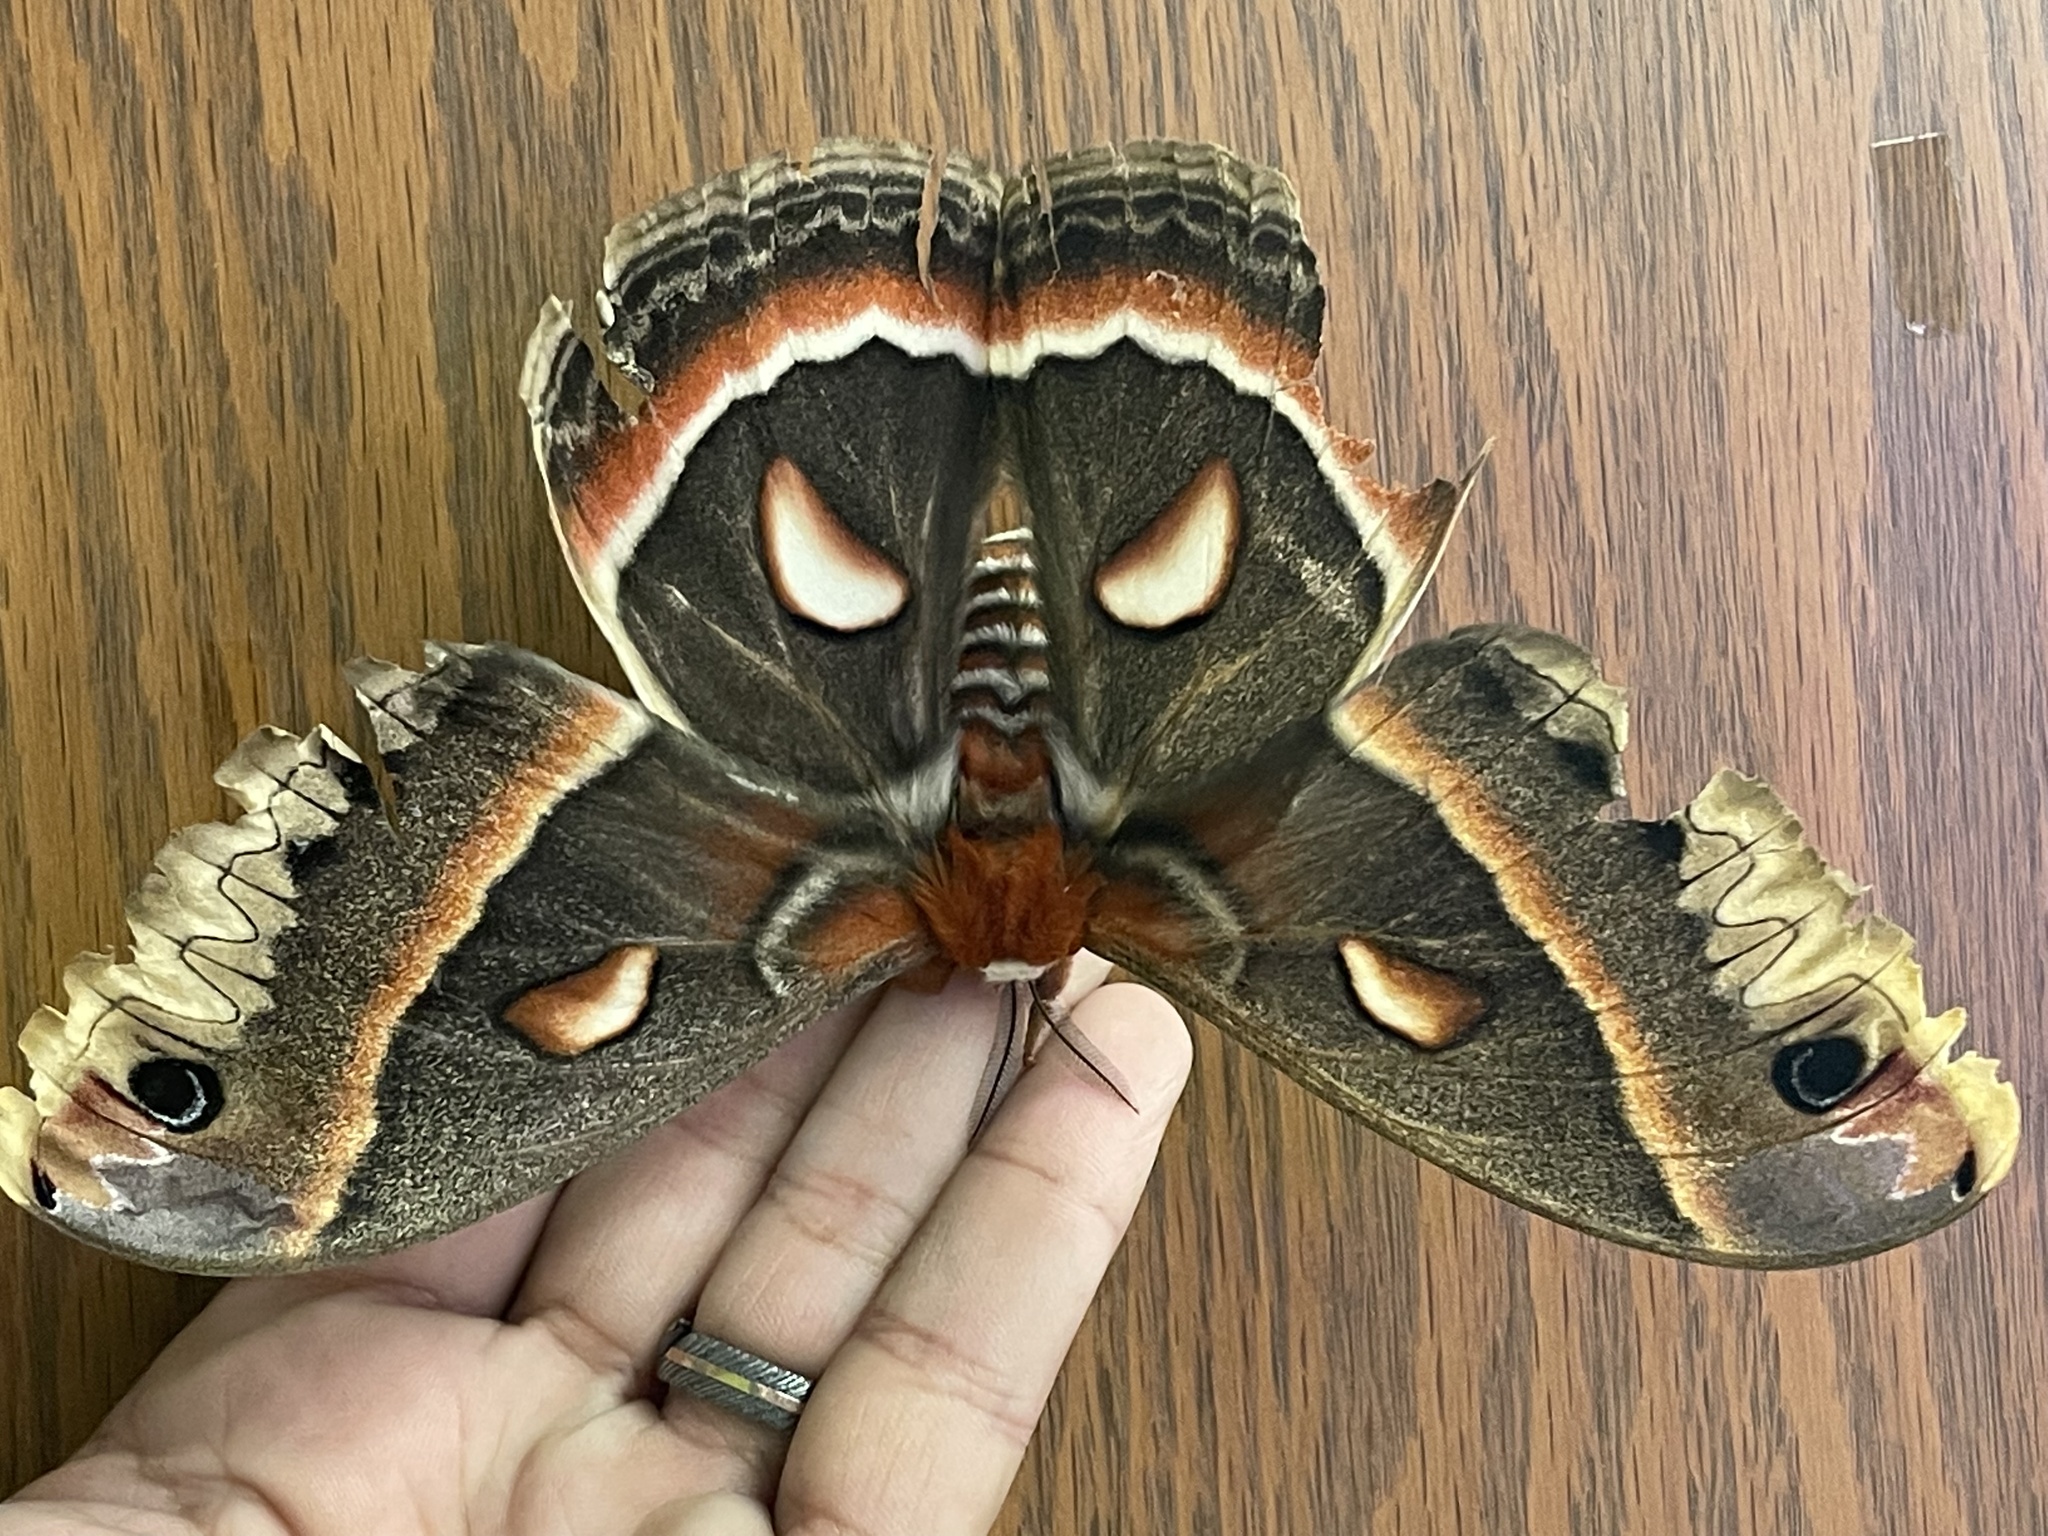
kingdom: Animalia
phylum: Arthropoda
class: Insecta
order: Lepidoptera
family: Saturniidae
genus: Hyalophora
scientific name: Hyalophora cecropia
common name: Cecropia silkmoth
